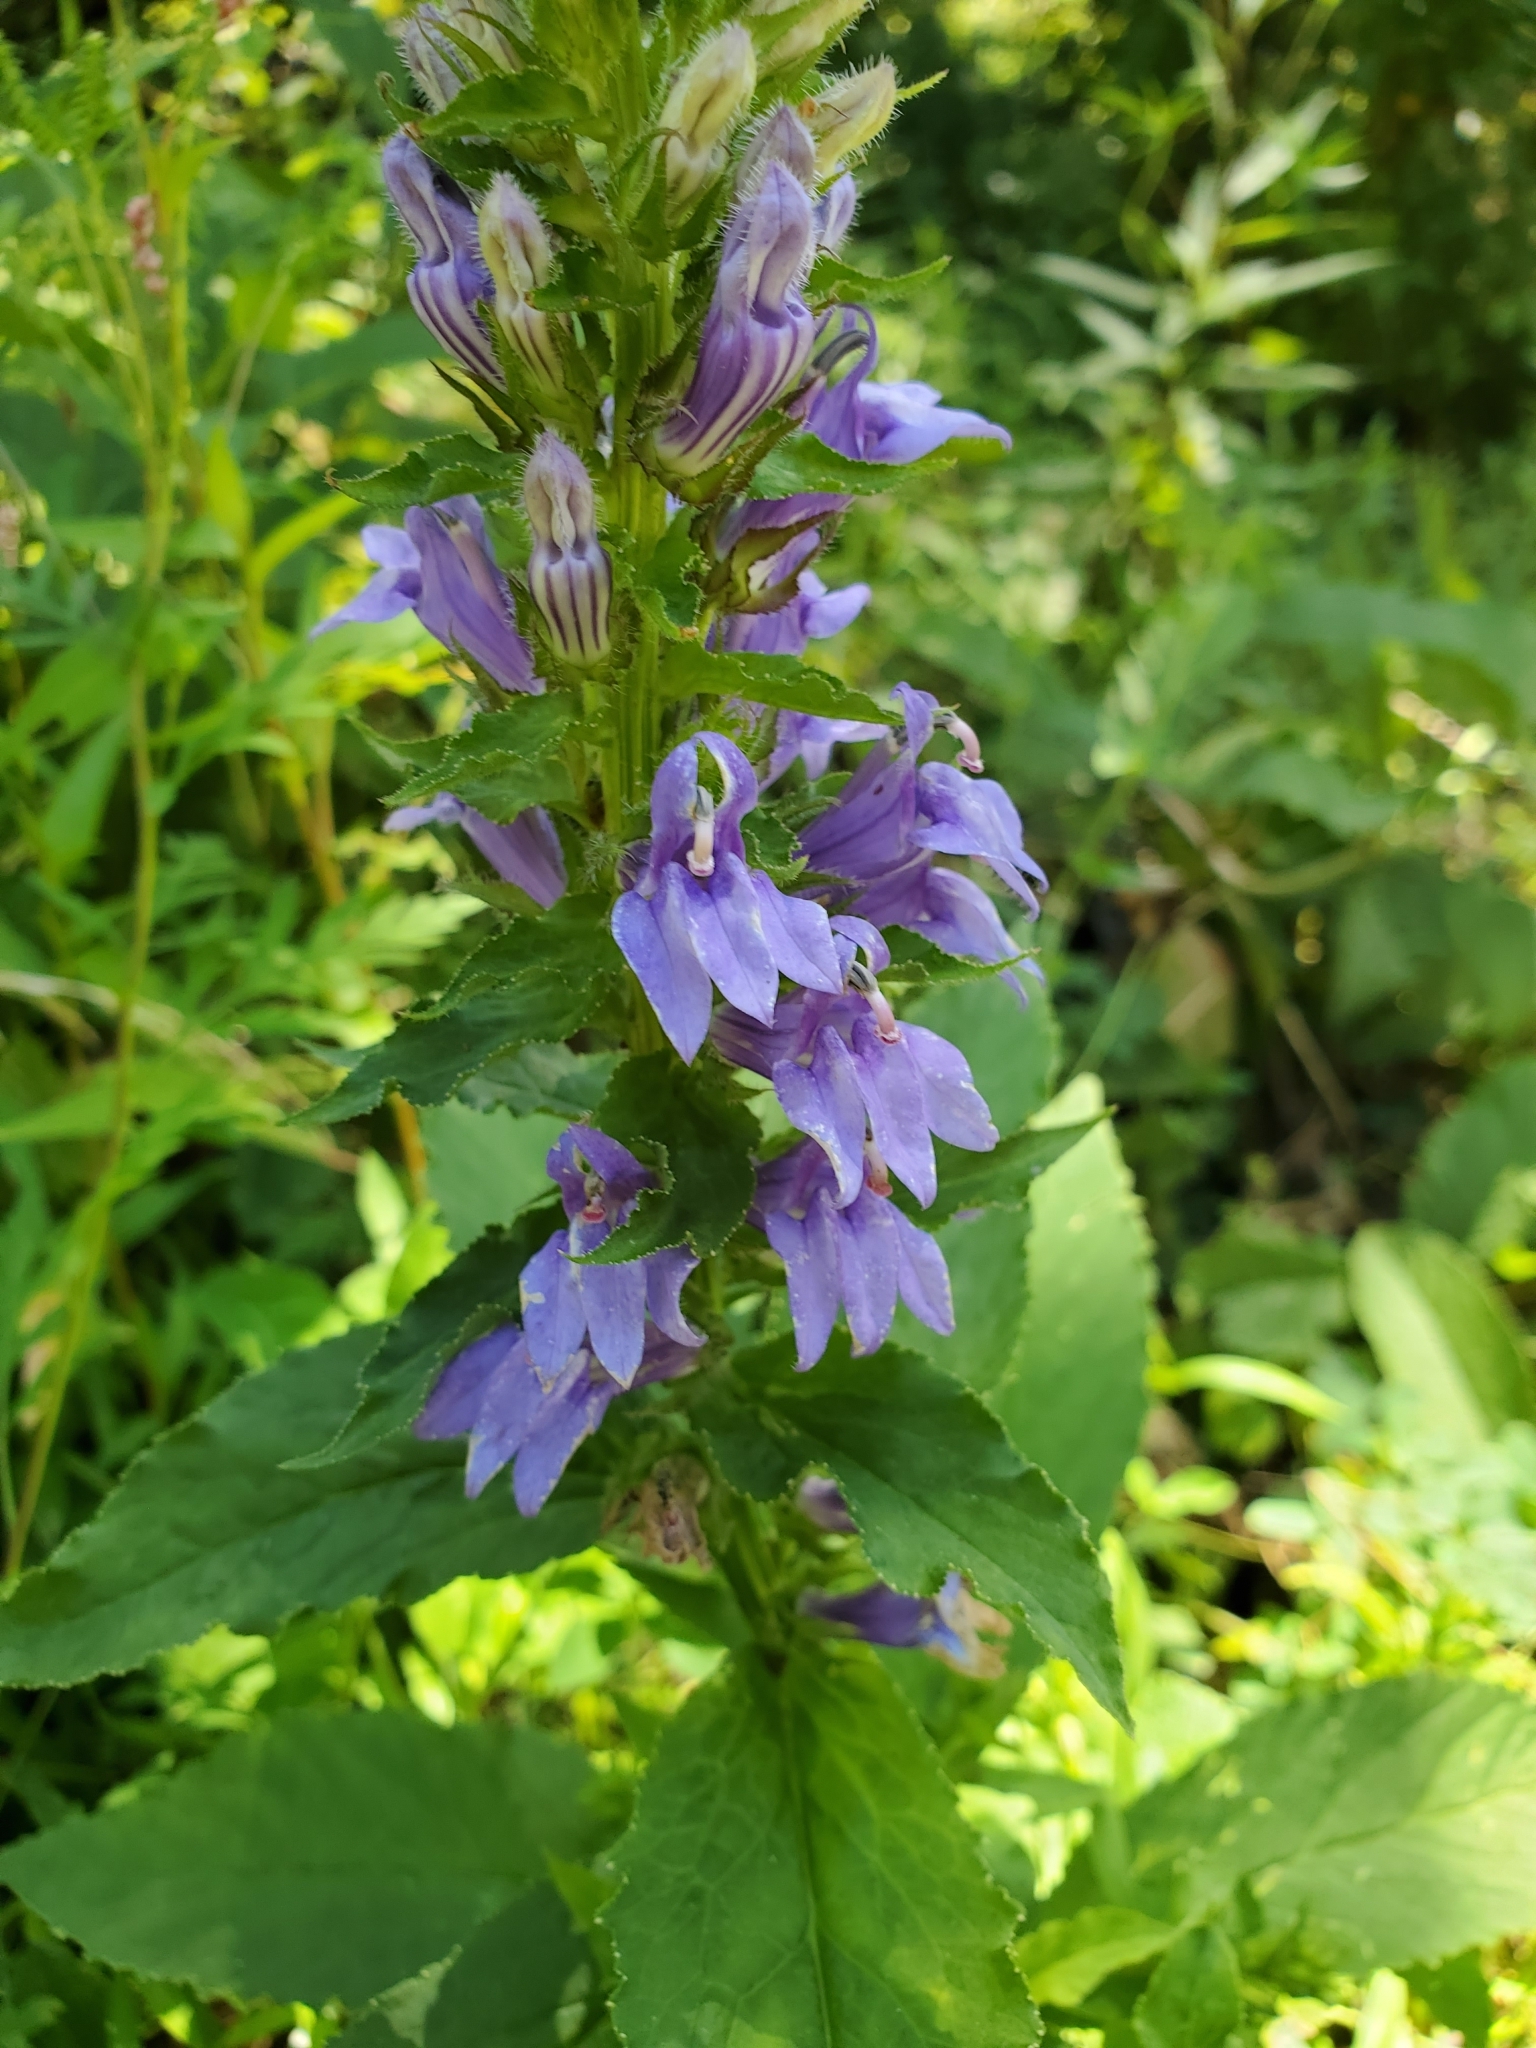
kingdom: Plantae
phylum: Tracheophyta
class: Magnoliopsida
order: Asterales
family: Campanulaceae
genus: Lobelia
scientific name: Lobelia siphilitica
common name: Great lobelia
